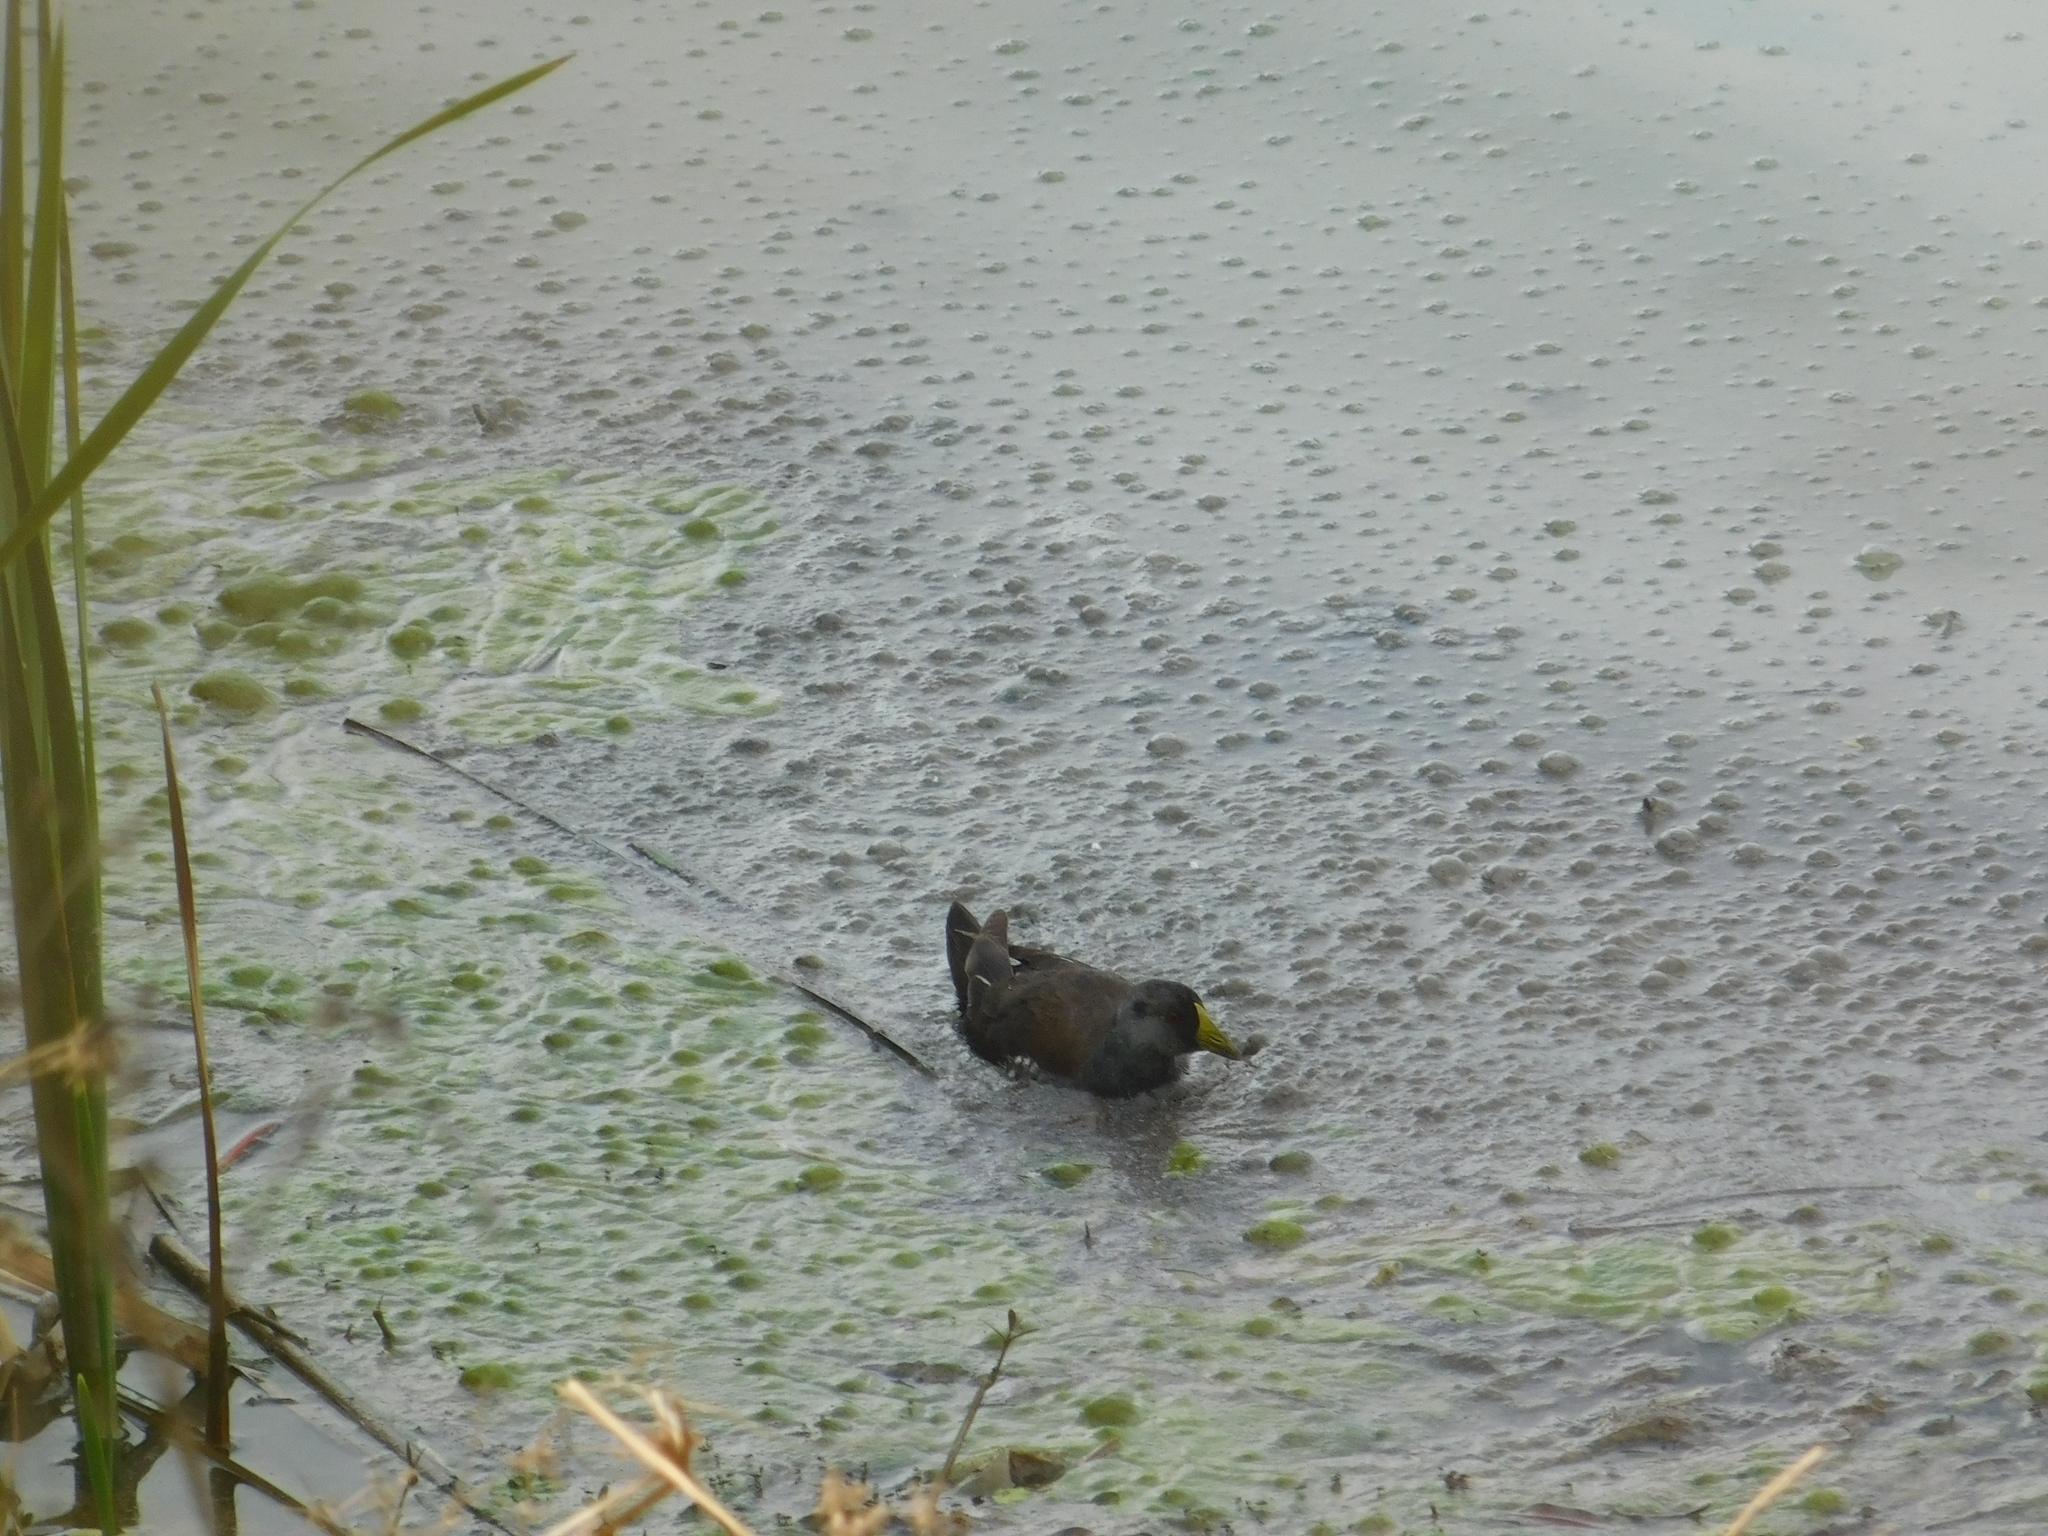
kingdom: Animalia
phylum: Chordata
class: Aves
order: Gruiformes
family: Rallidae
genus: Gallinula
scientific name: Gallinula melanops
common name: Spot-flanked gallinule
